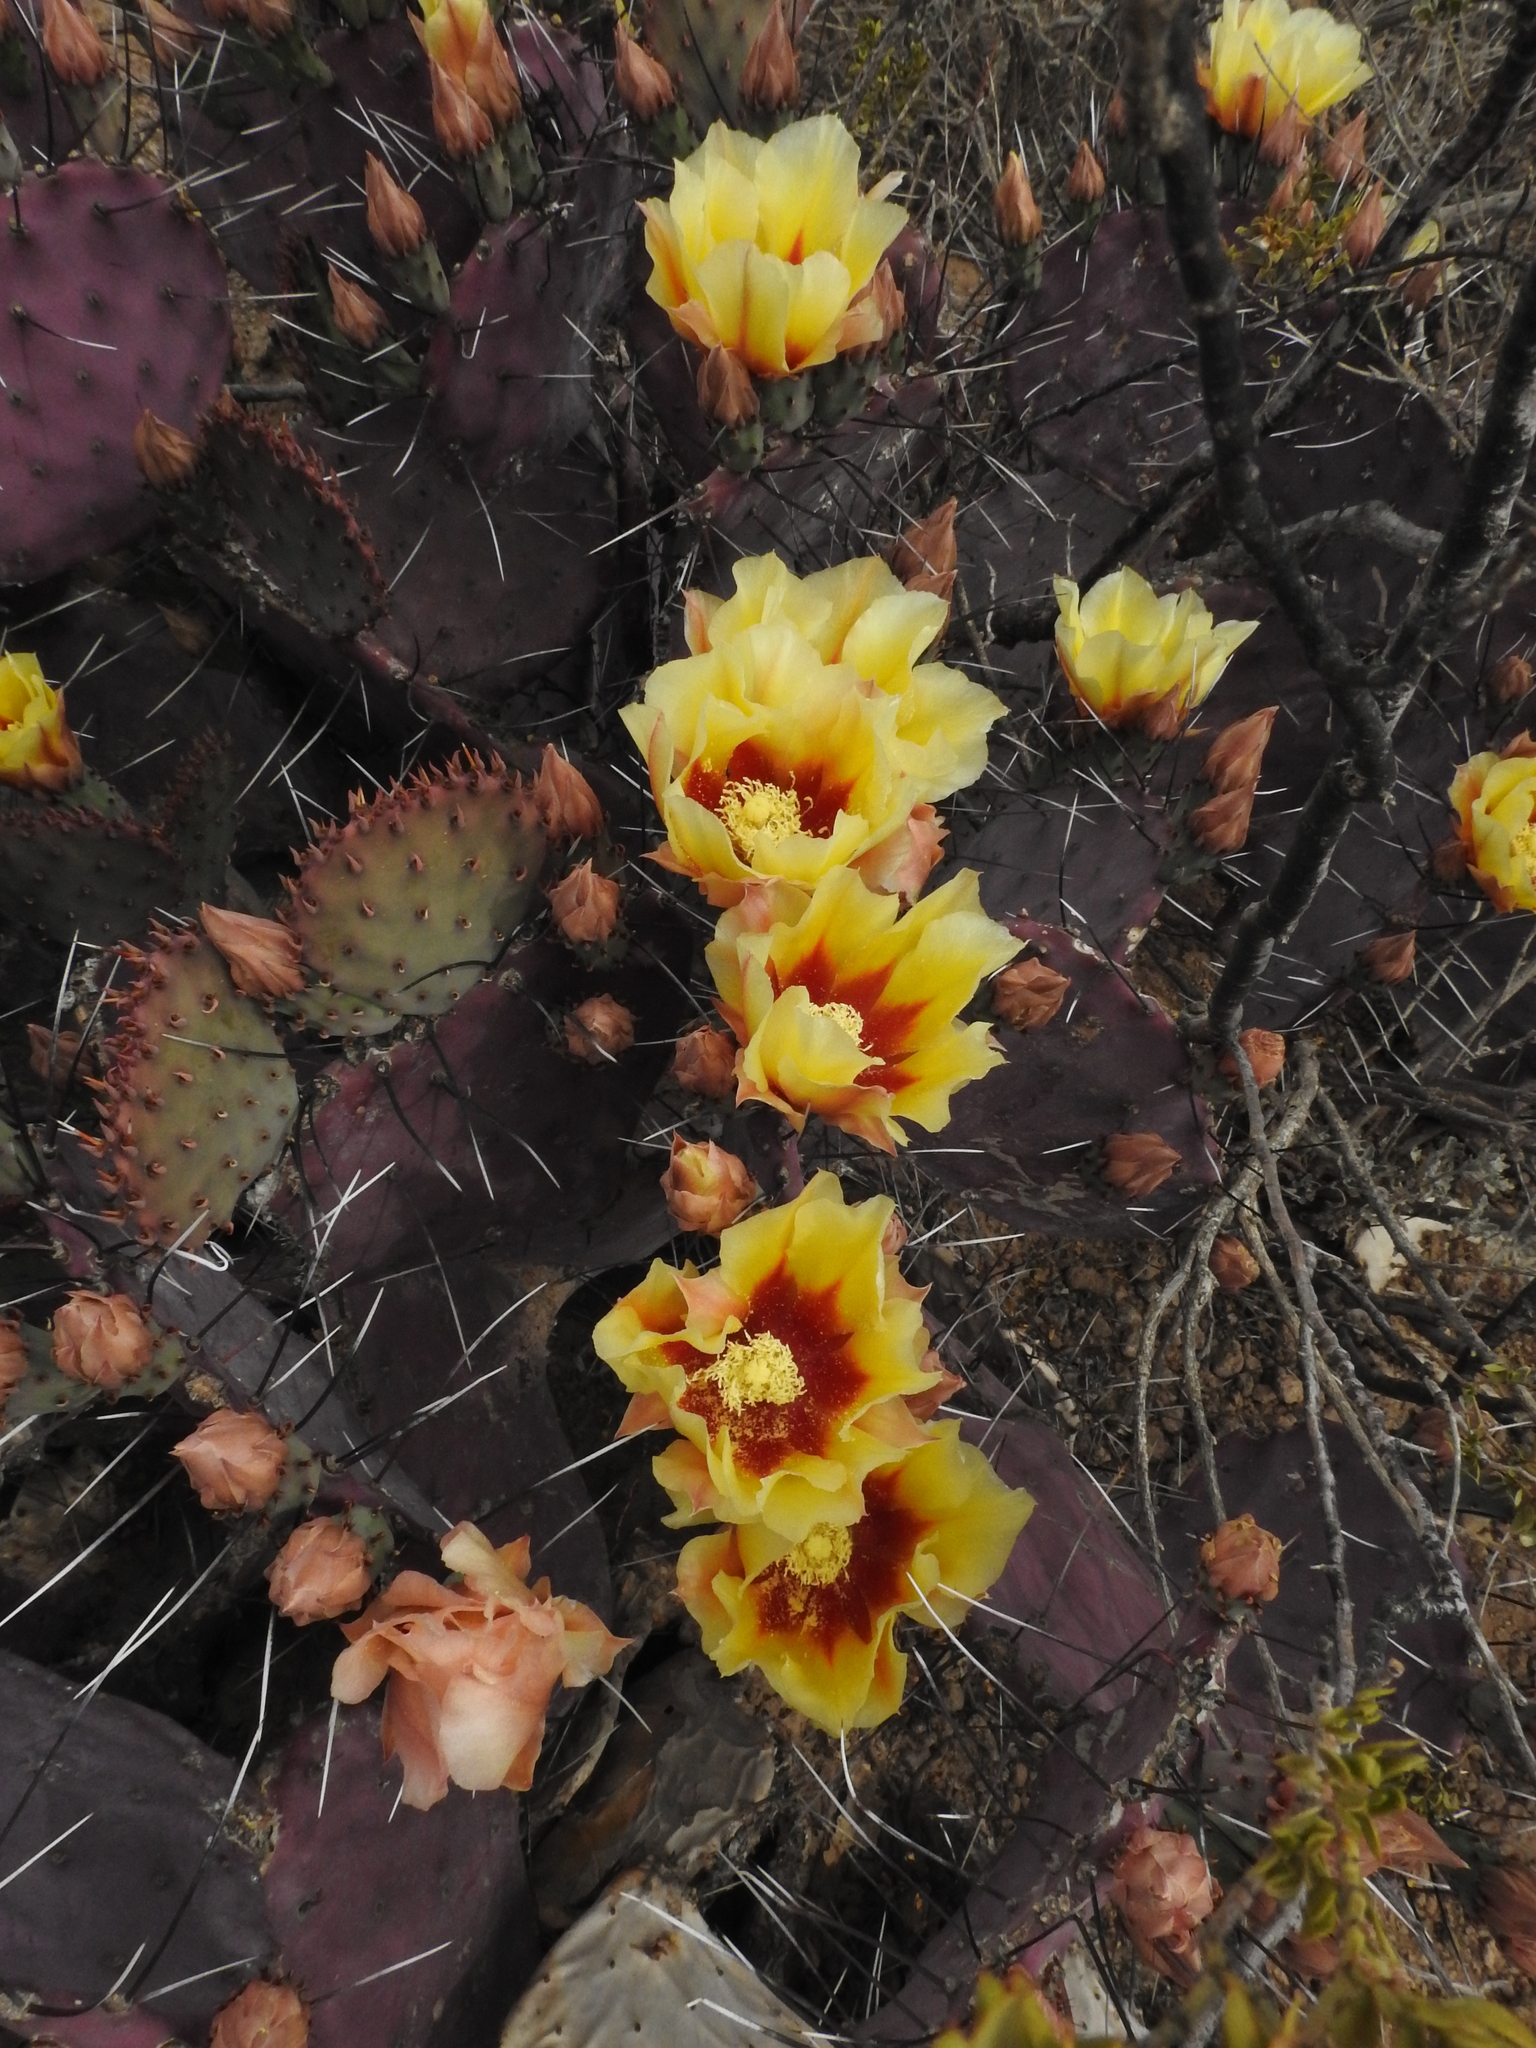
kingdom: Plantae
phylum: Tracheophyta
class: Magnoliopsida
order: Caryophyllales
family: Cactaceae
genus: Opuntia
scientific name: Opuntia phaeacantha
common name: New mexico prickly-pear
